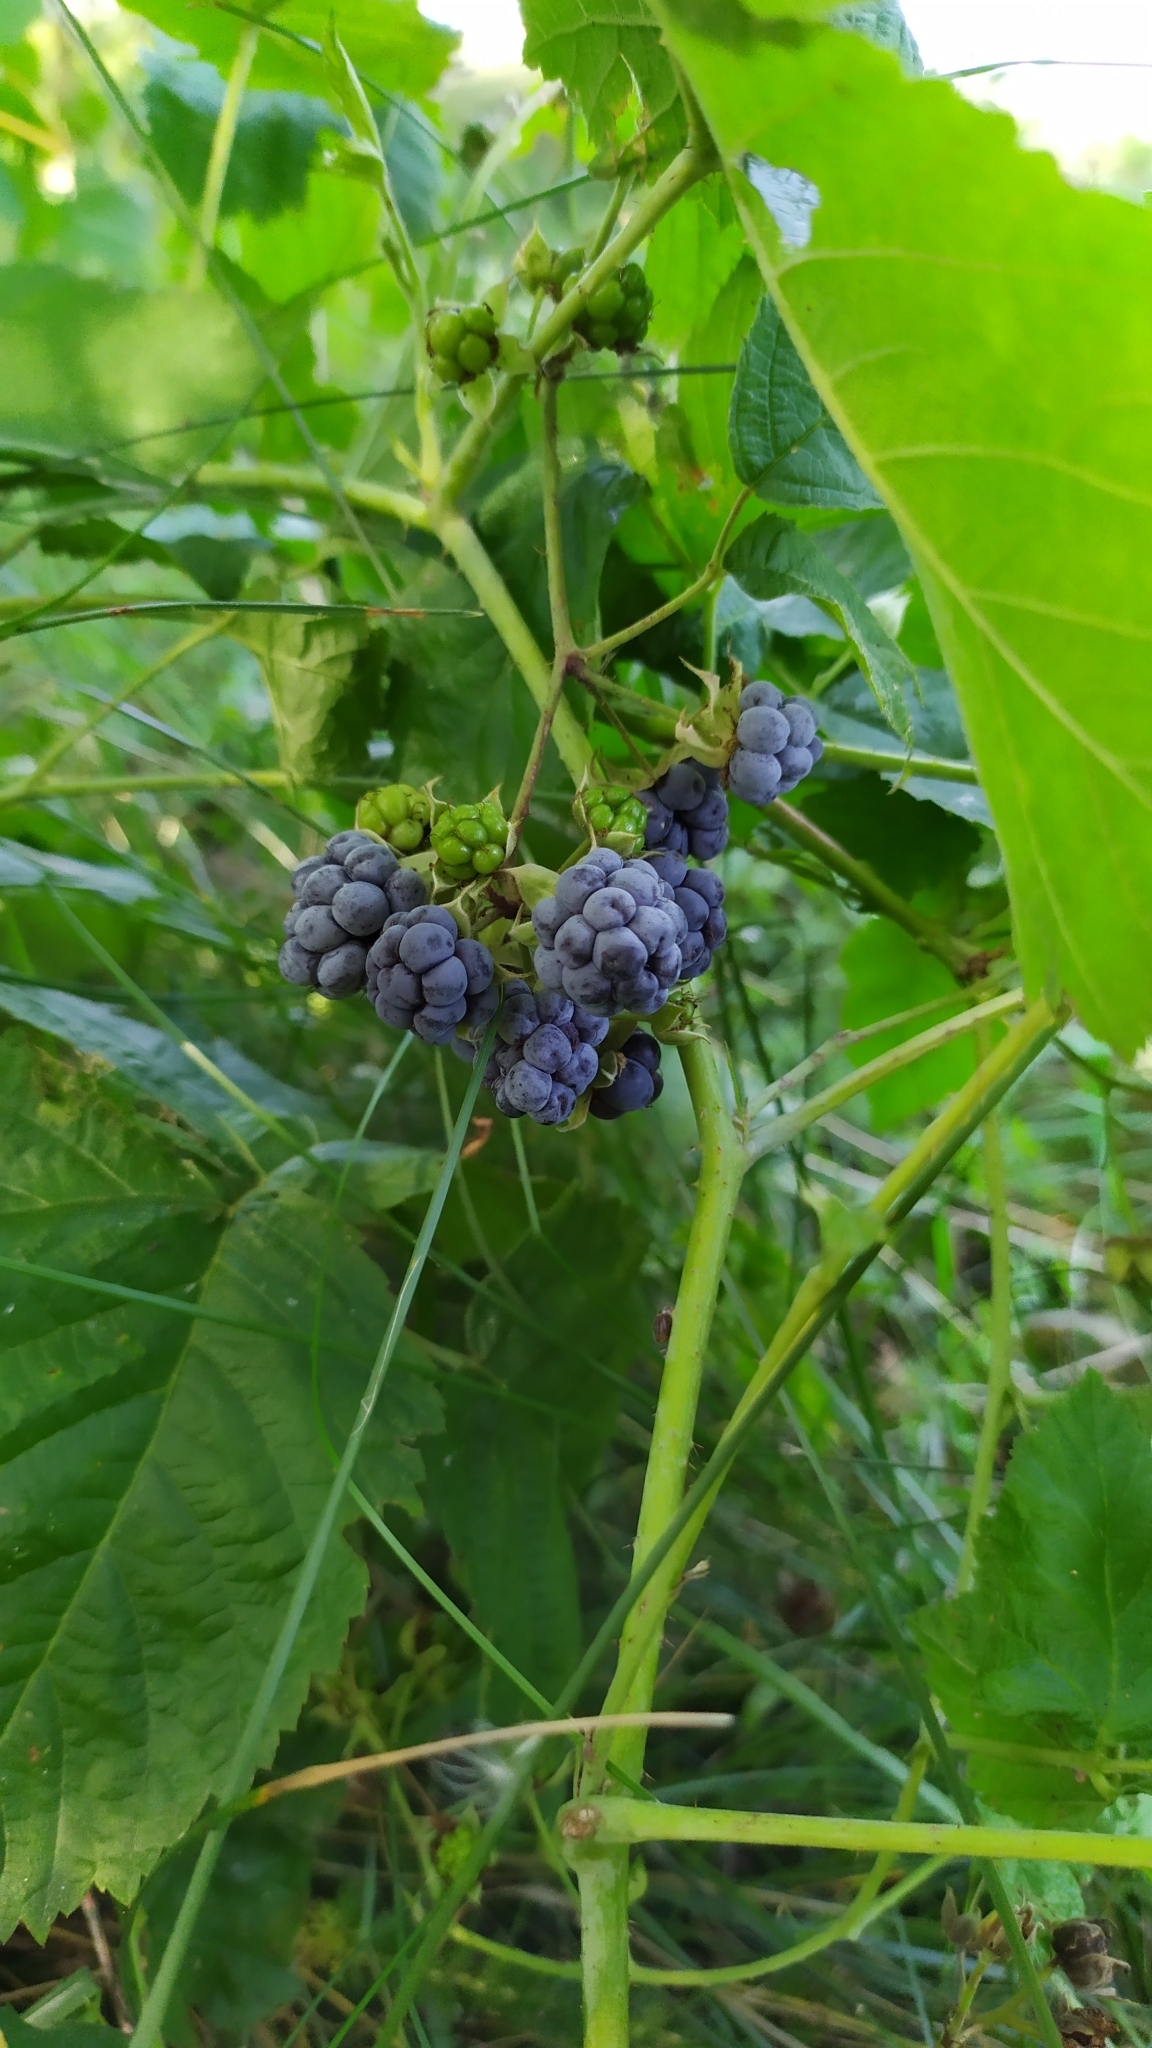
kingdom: Plantae
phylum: Tracheophyta
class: Magnoliopsida
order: Rosales
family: Rosaceae
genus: Rubus
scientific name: Rubus caesius
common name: Dewberry
